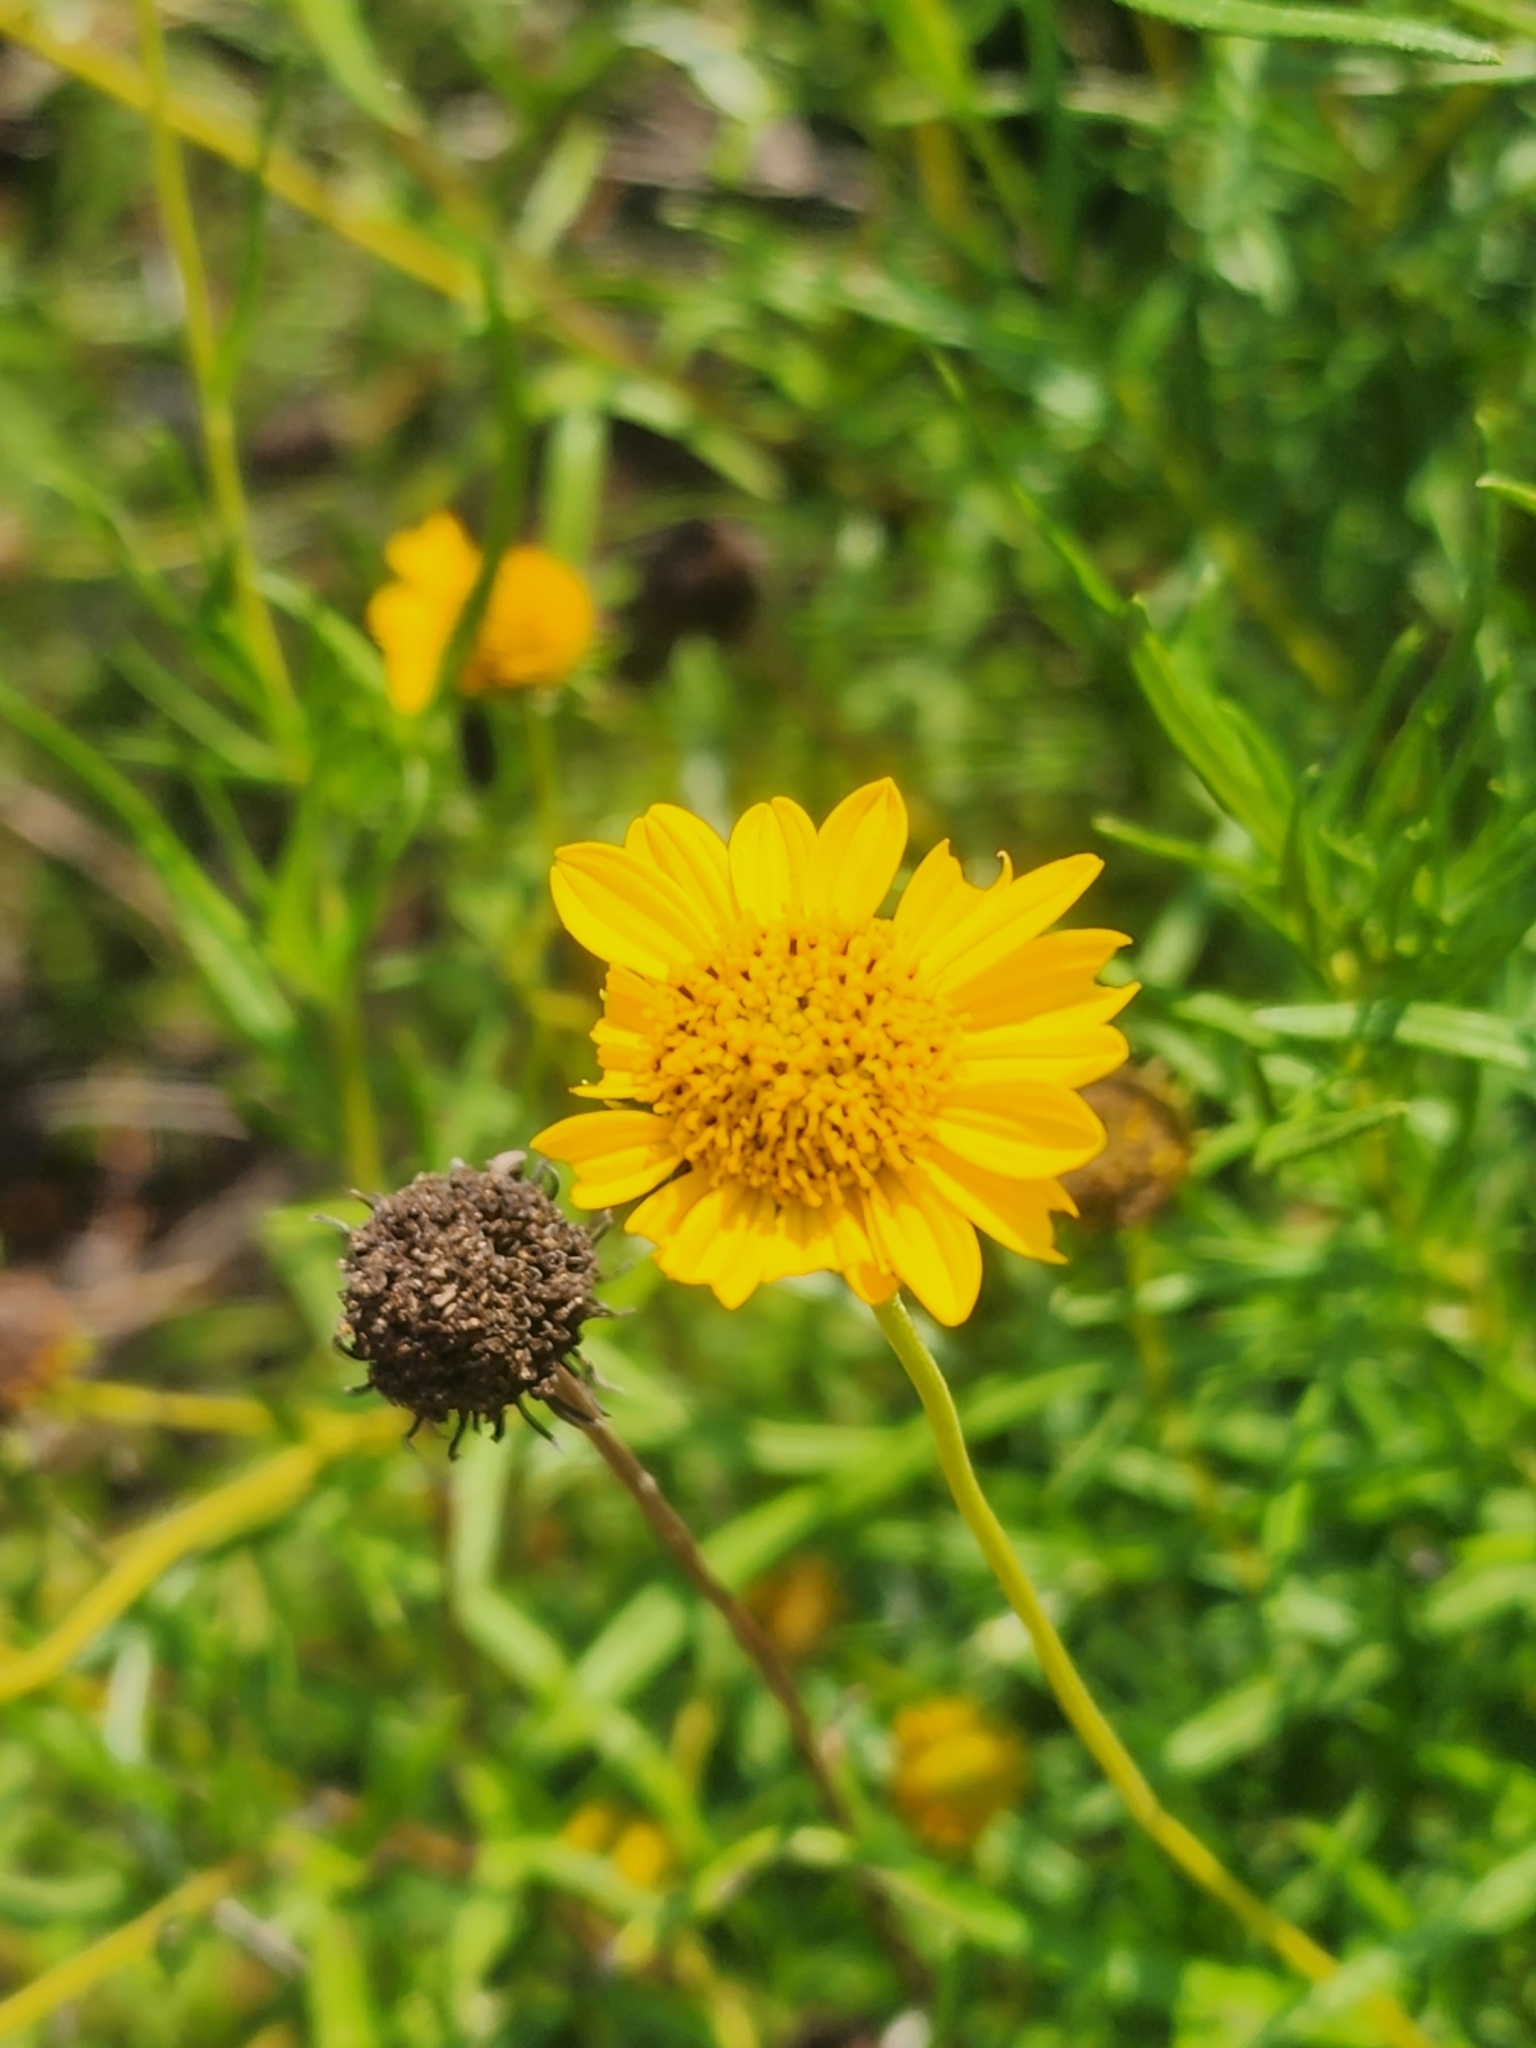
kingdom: Plantae
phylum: Tracheophyta
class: Magnoliopsida
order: Asterales
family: Asteraceae
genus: Sidneya
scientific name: Sidneya tenuifolia
